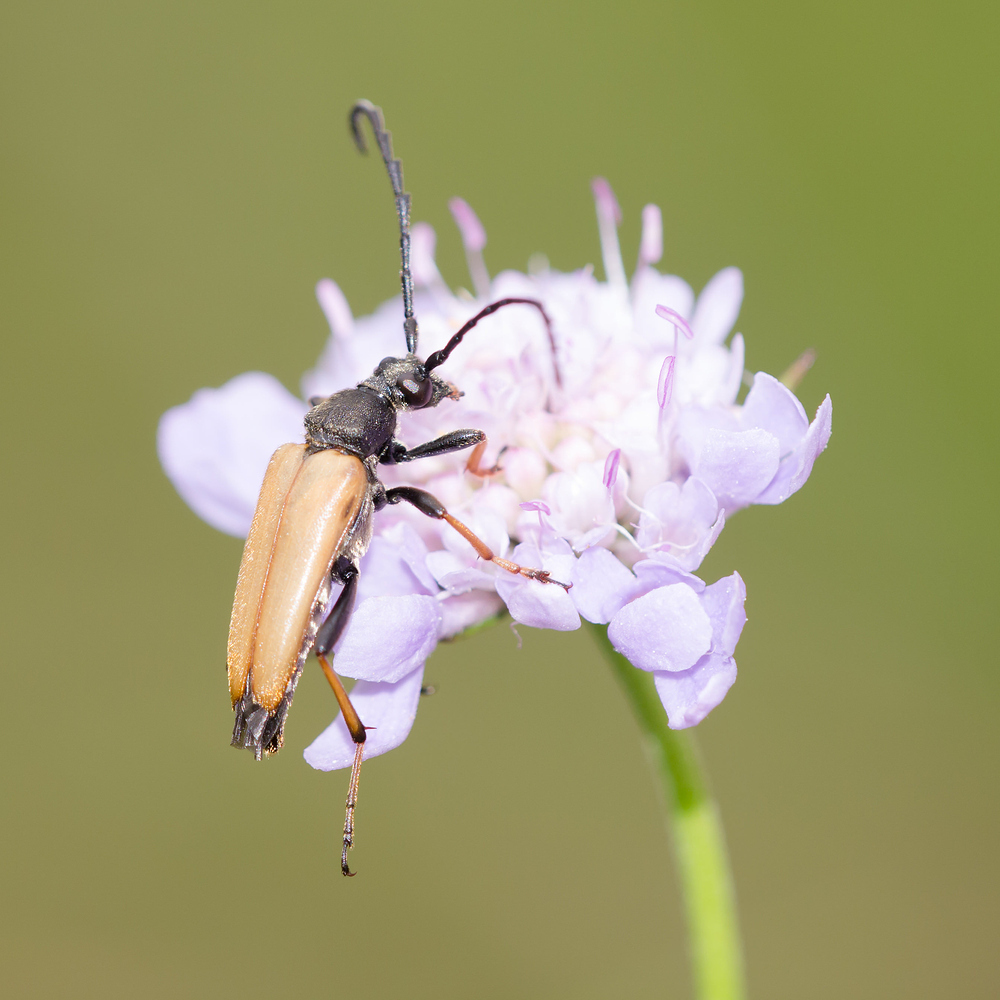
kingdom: Animalia
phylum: Arthropoda
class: Insecta
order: Coleoptera
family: Cerambycidae
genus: Stictoleptura
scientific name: Stictoleptura rubra
